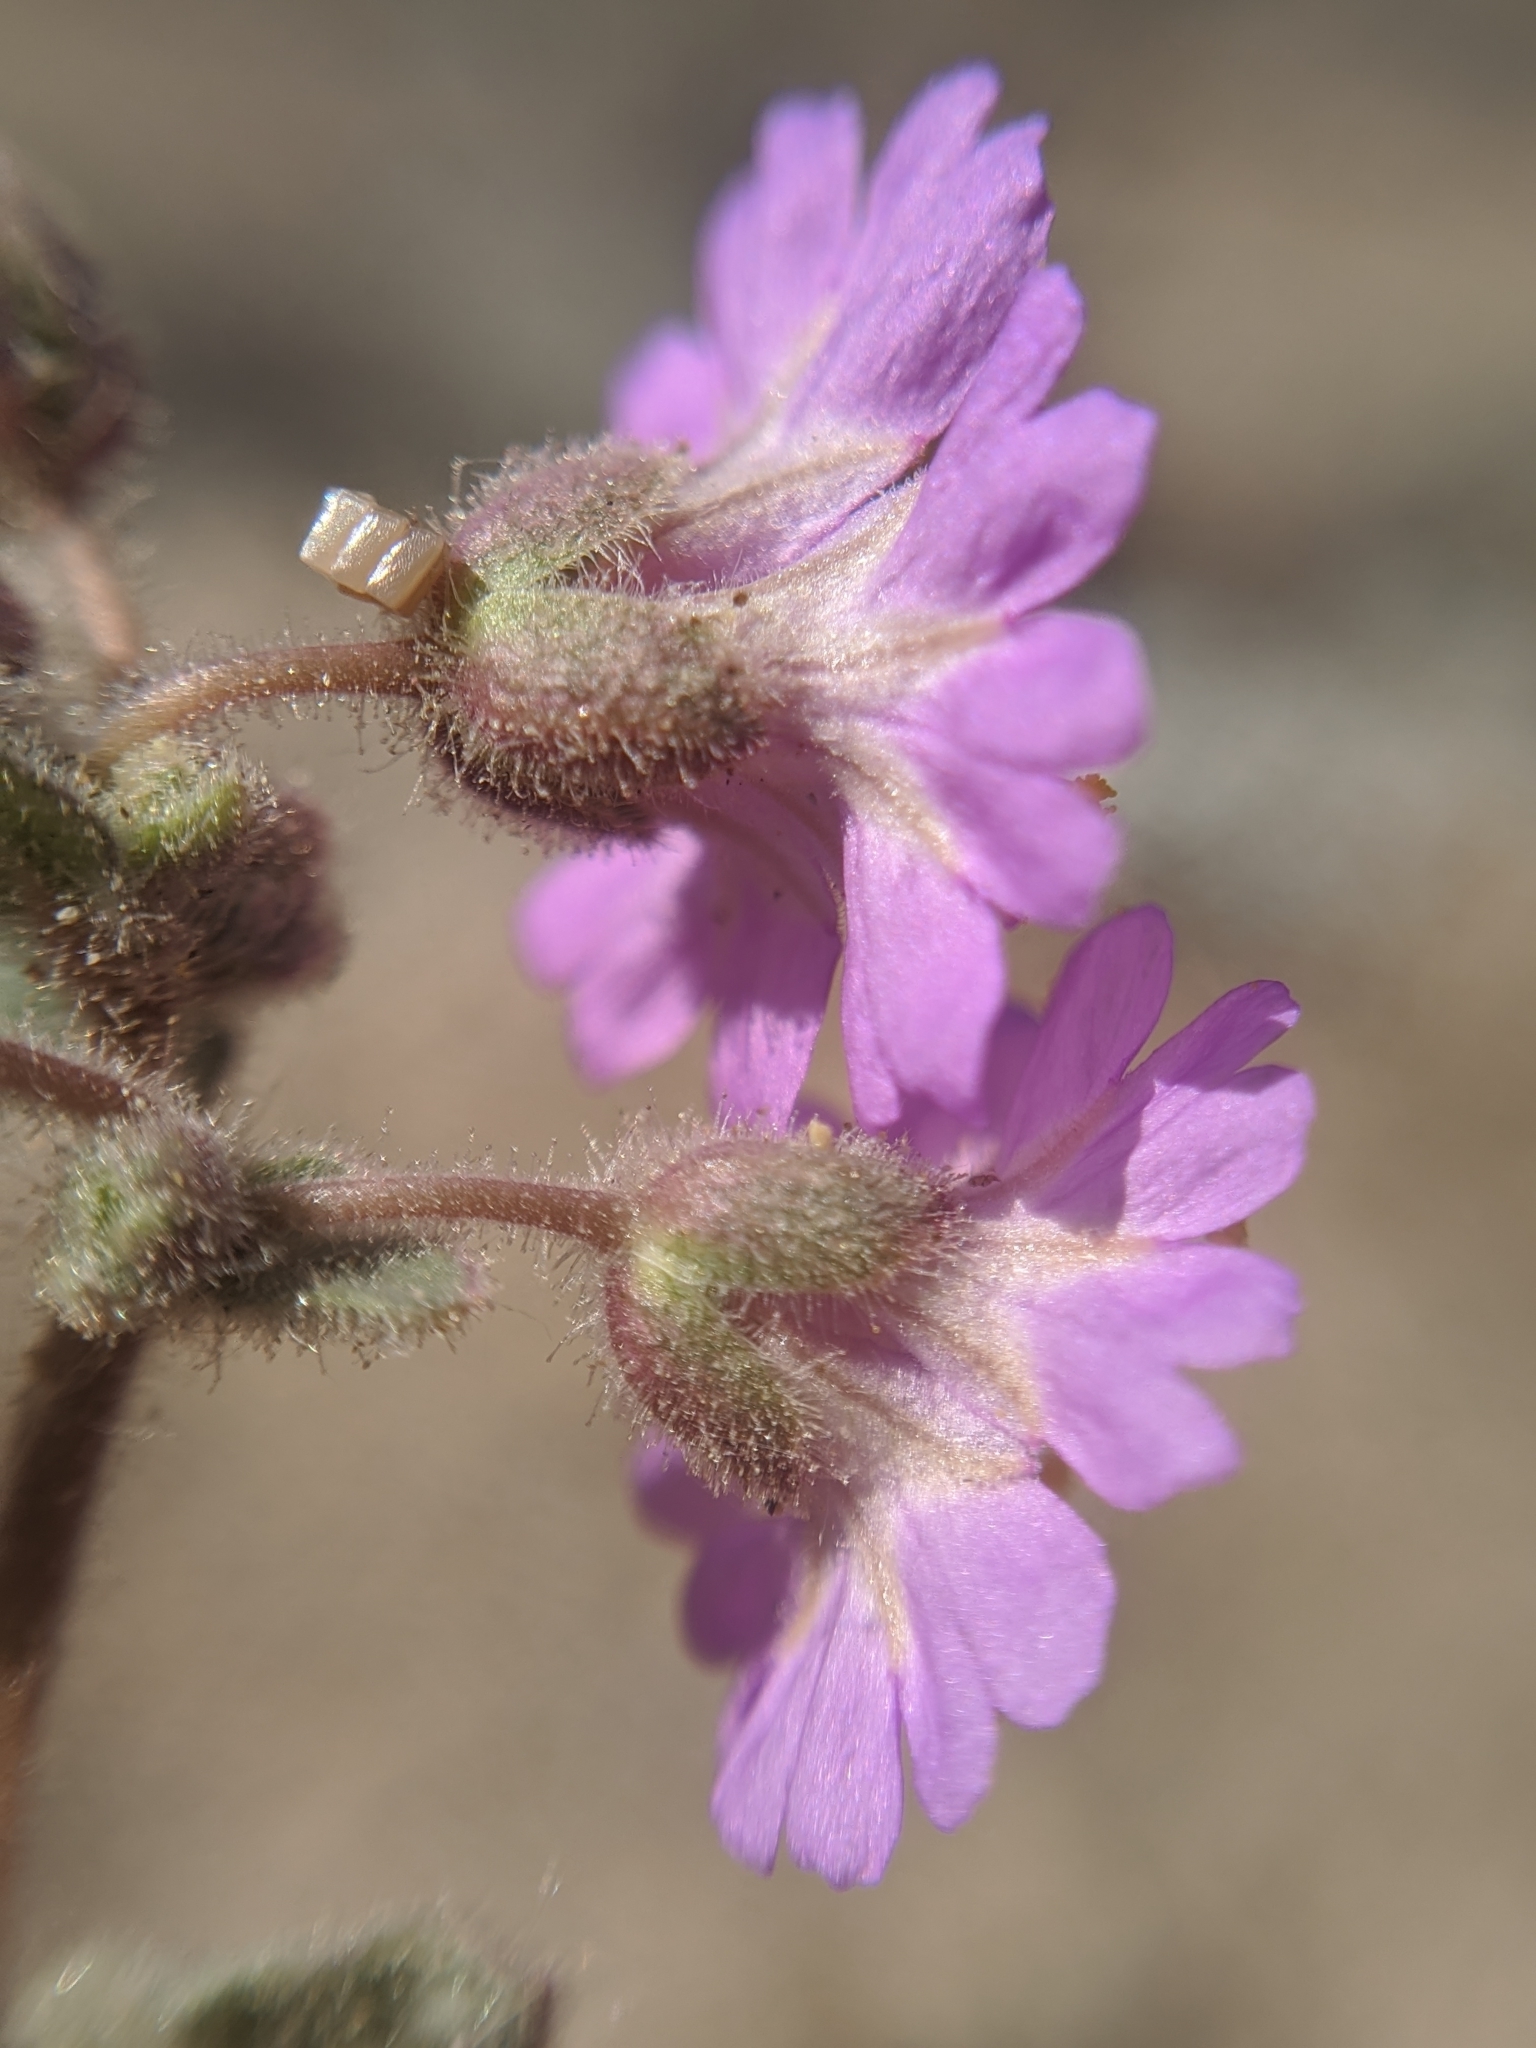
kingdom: Plantae
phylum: Tracheophyta
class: Magnoliopsida
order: Caryophyllales
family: Nyctaginaceae
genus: Allionia
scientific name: Allionia incarnata
